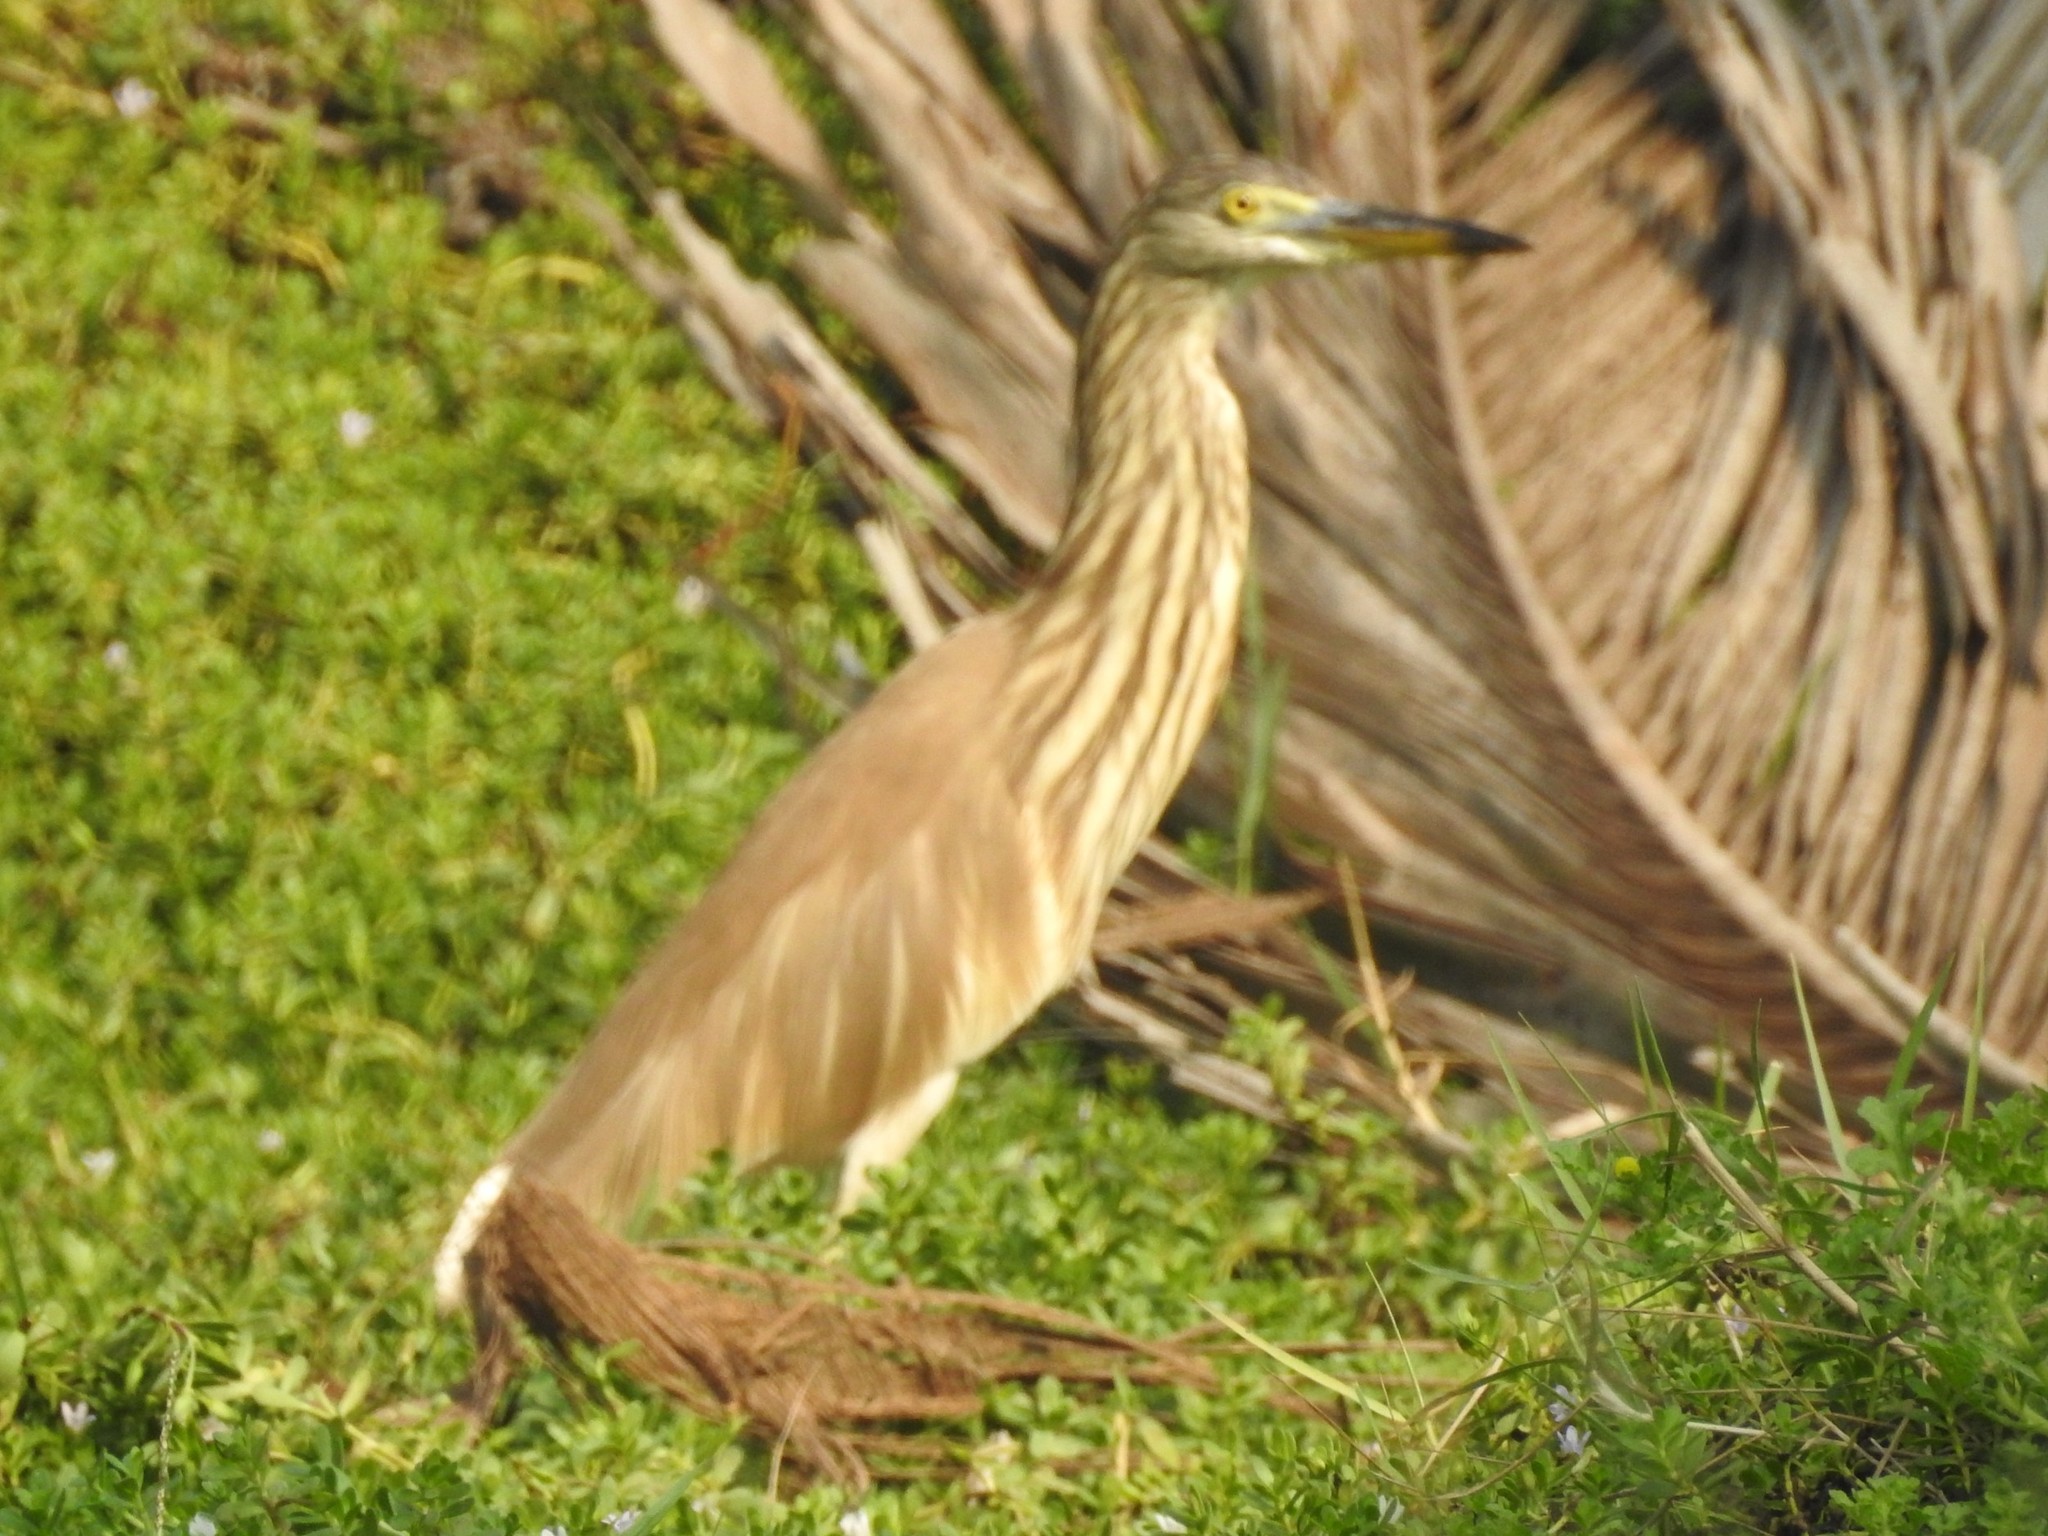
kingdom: Animalia
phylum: Chordata
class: Aves
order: Pelecaniformes
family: Ardeidae
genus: Ardeola
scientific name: Ardeola grayii
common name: Indian pond heron
